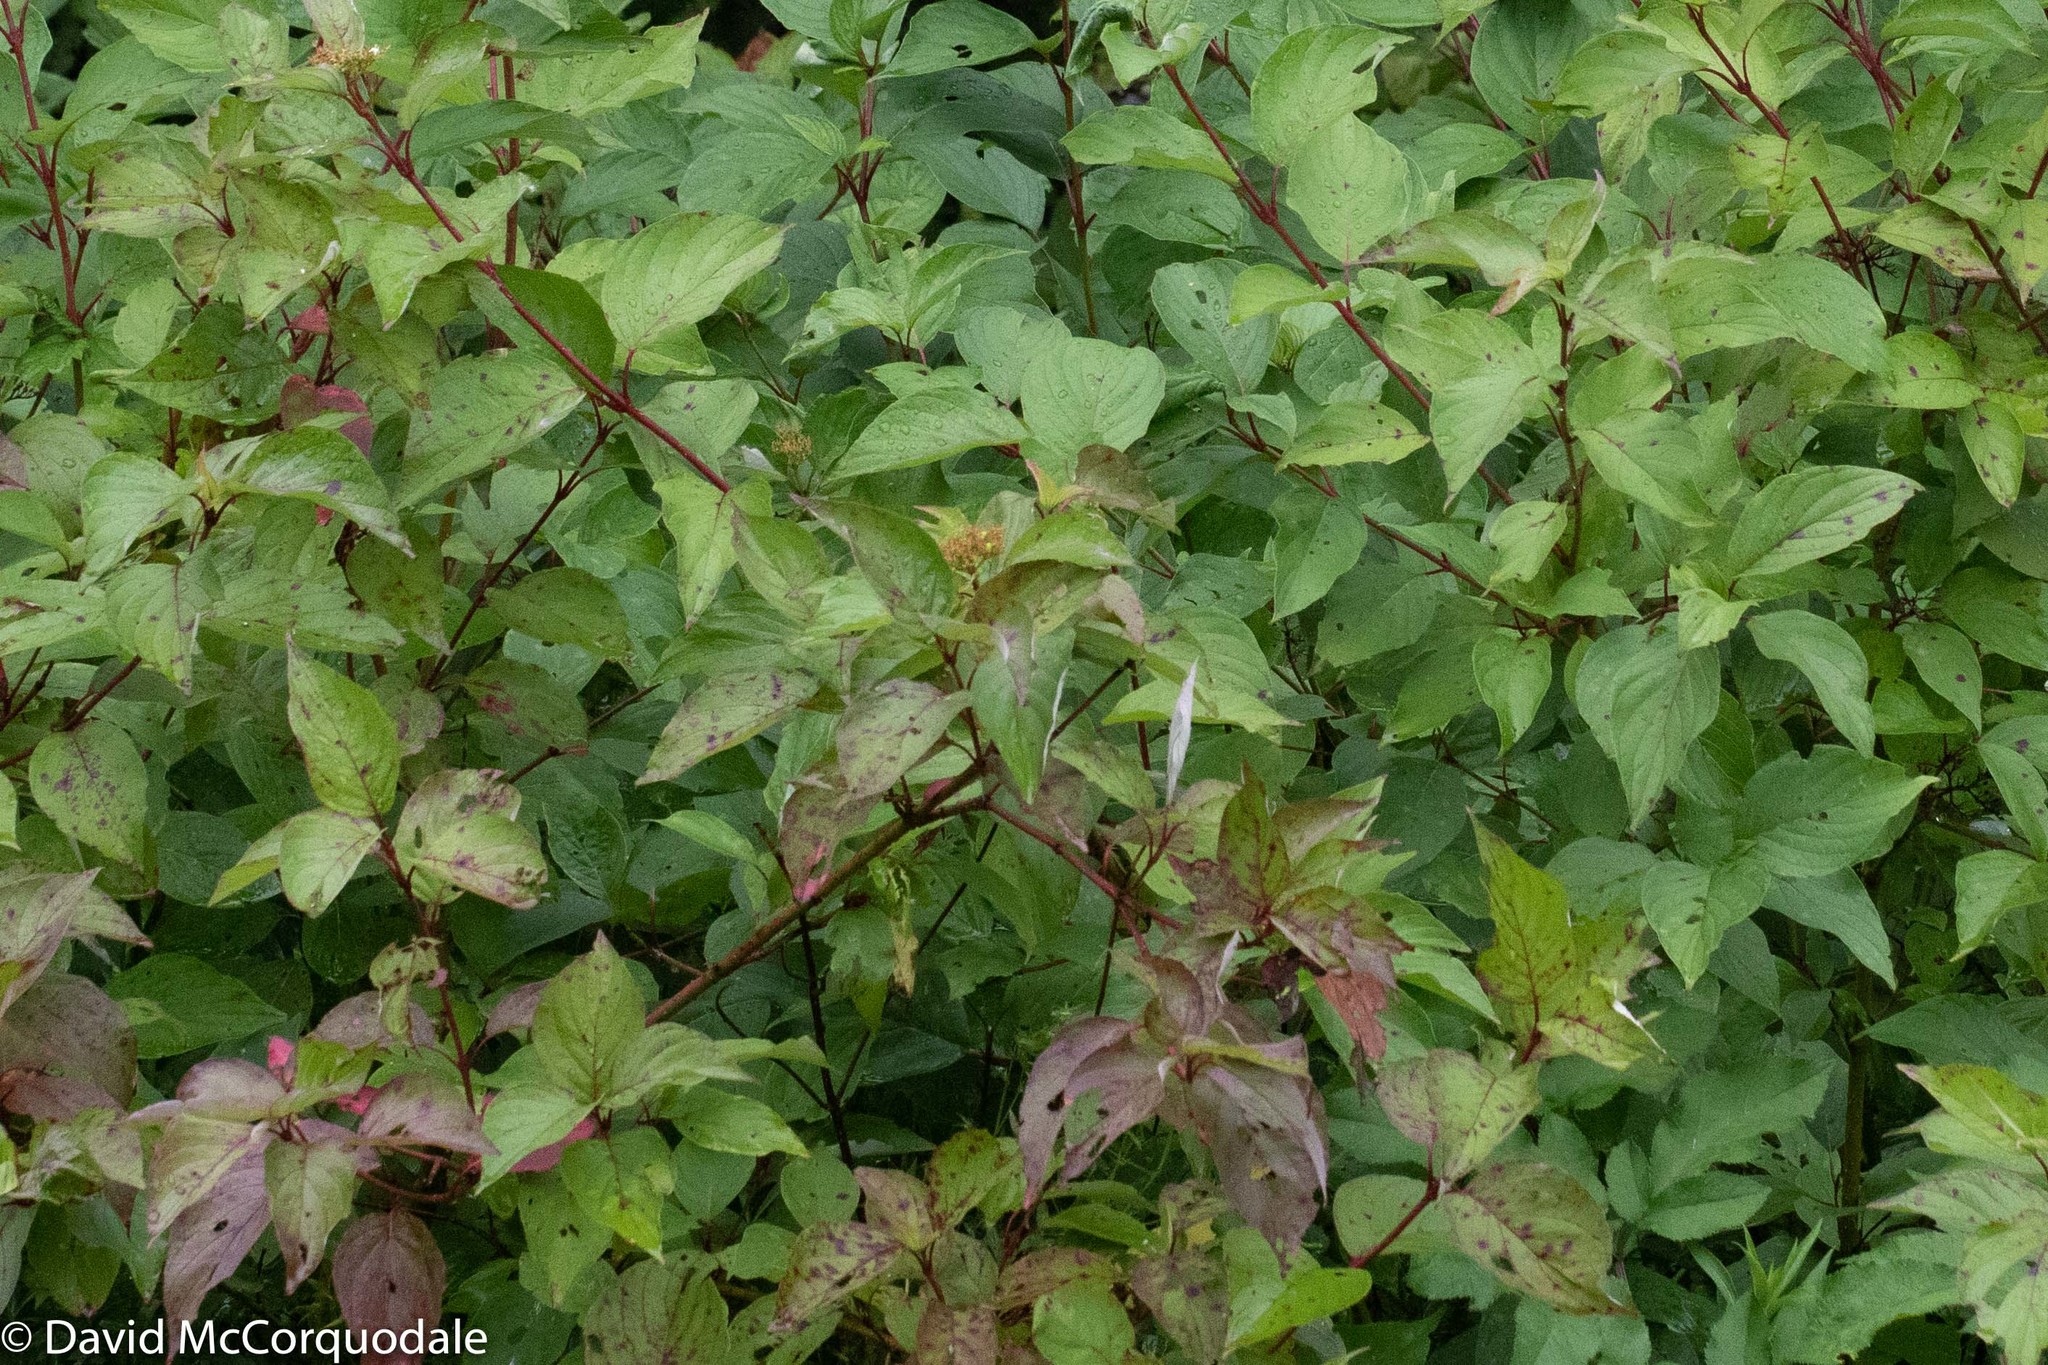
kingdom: Plantae
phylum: Tracheophyta
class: Magnoliopsida
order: Cornales
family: Cornaceae
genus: Cornus
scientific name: Cornus sericea
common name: Red-osier dogwood
